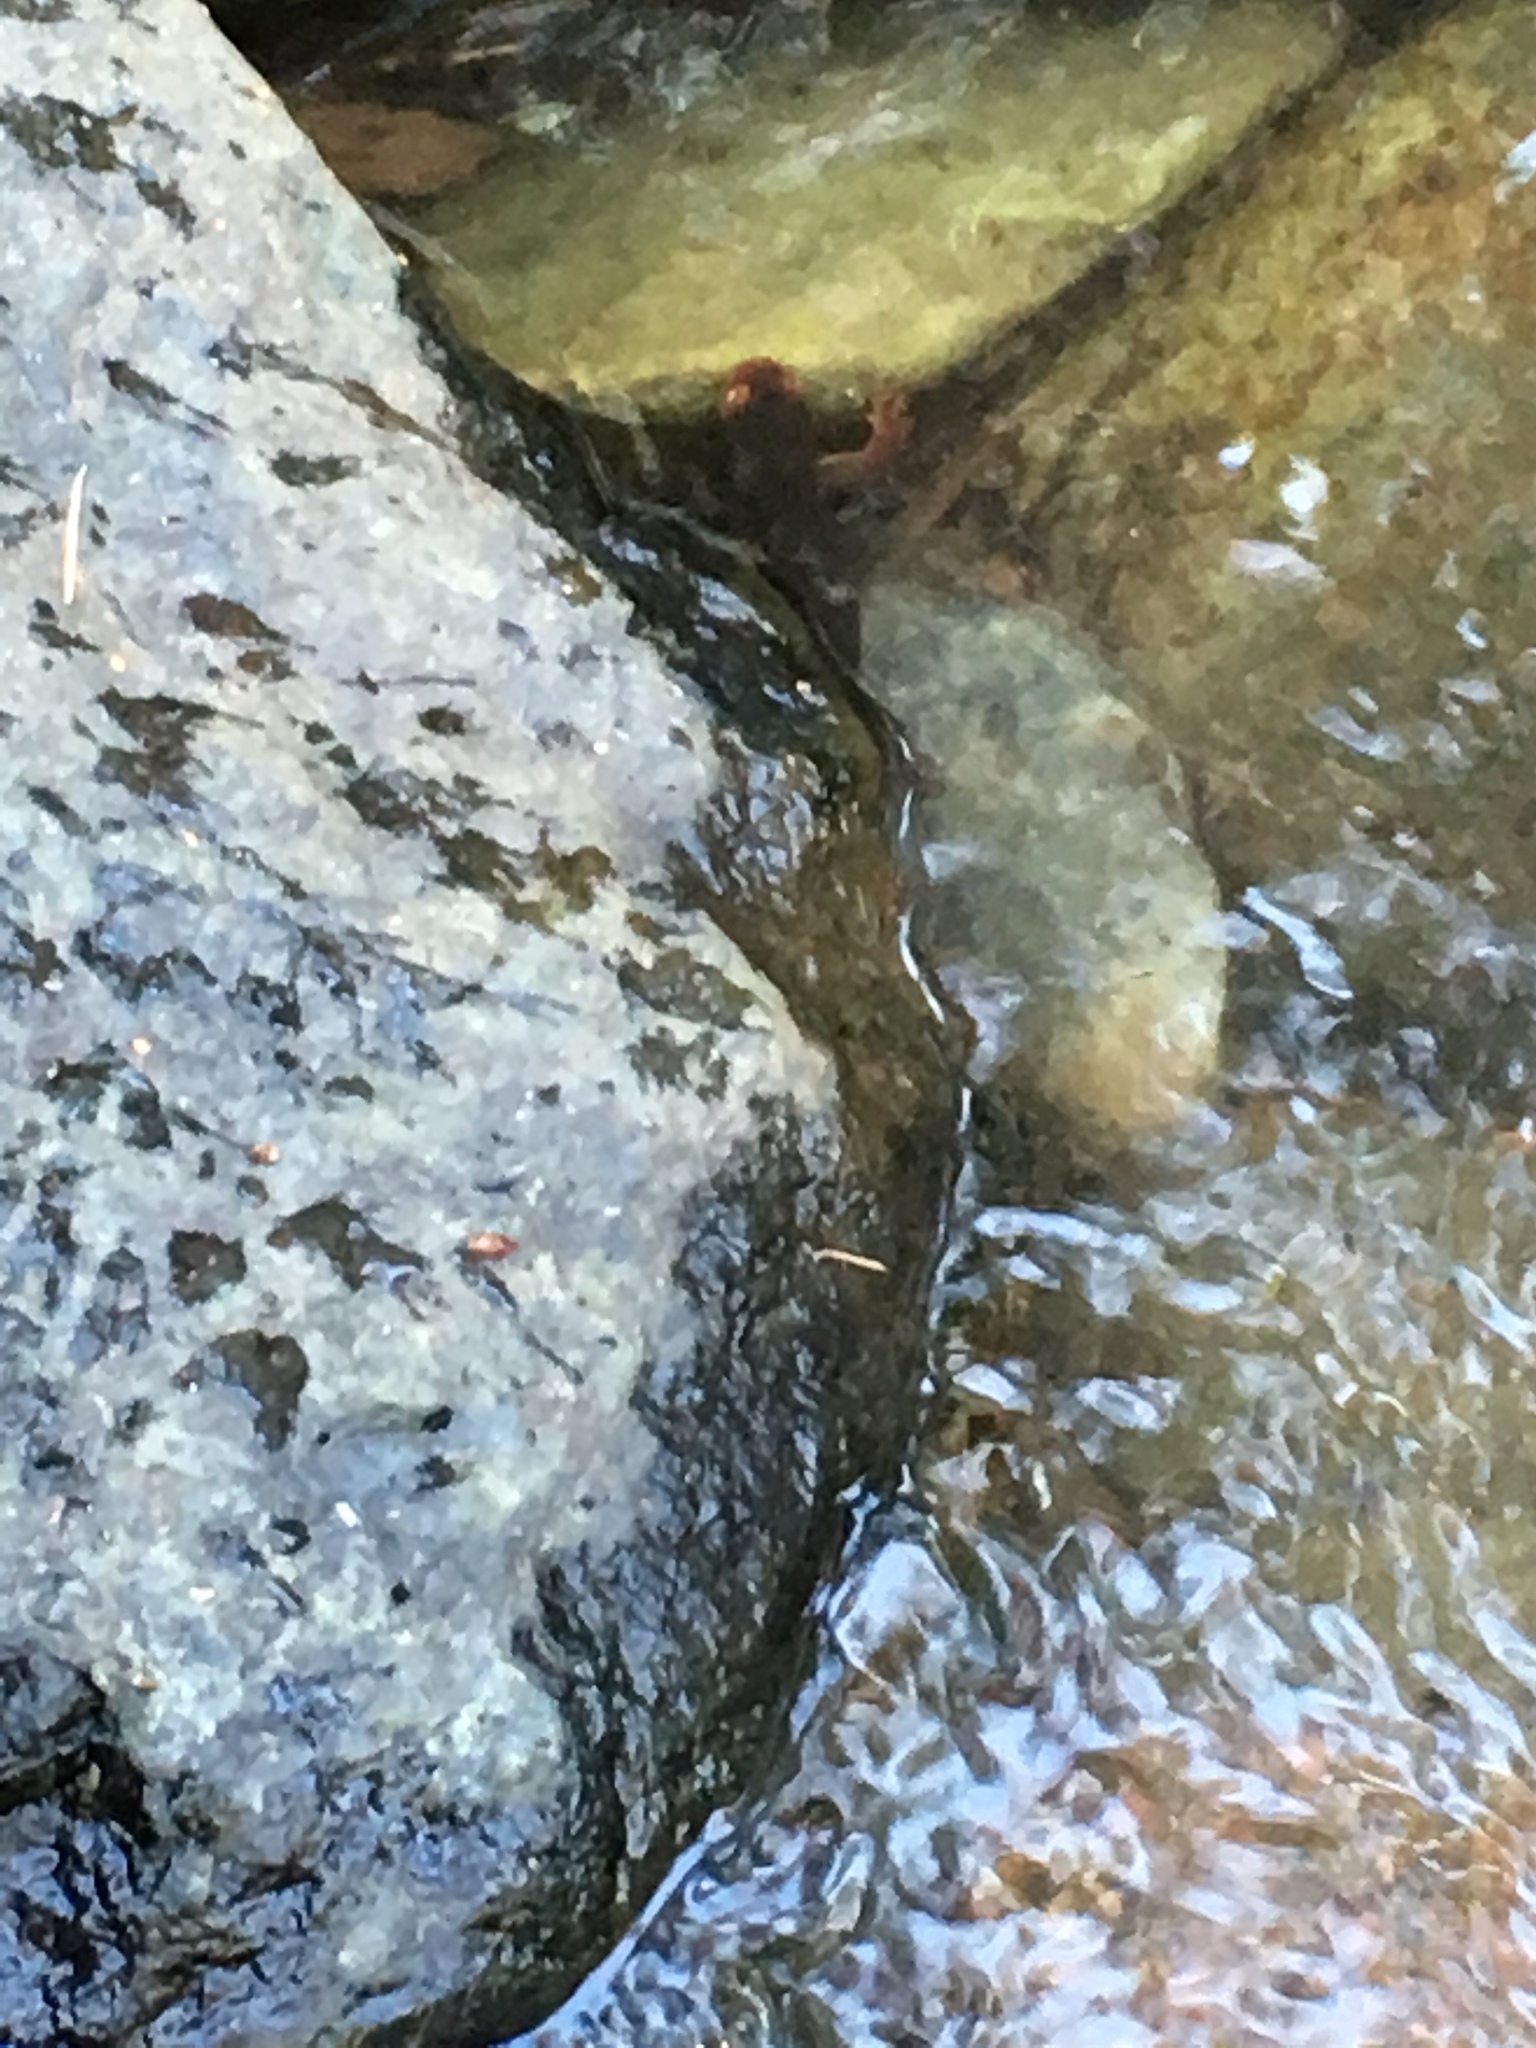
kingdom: Animalia
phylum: Chordata
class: Amphibia
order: Caudata
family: Salamandridae
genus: Taricha
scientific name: Taricha sierrae
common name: Sierra newt
